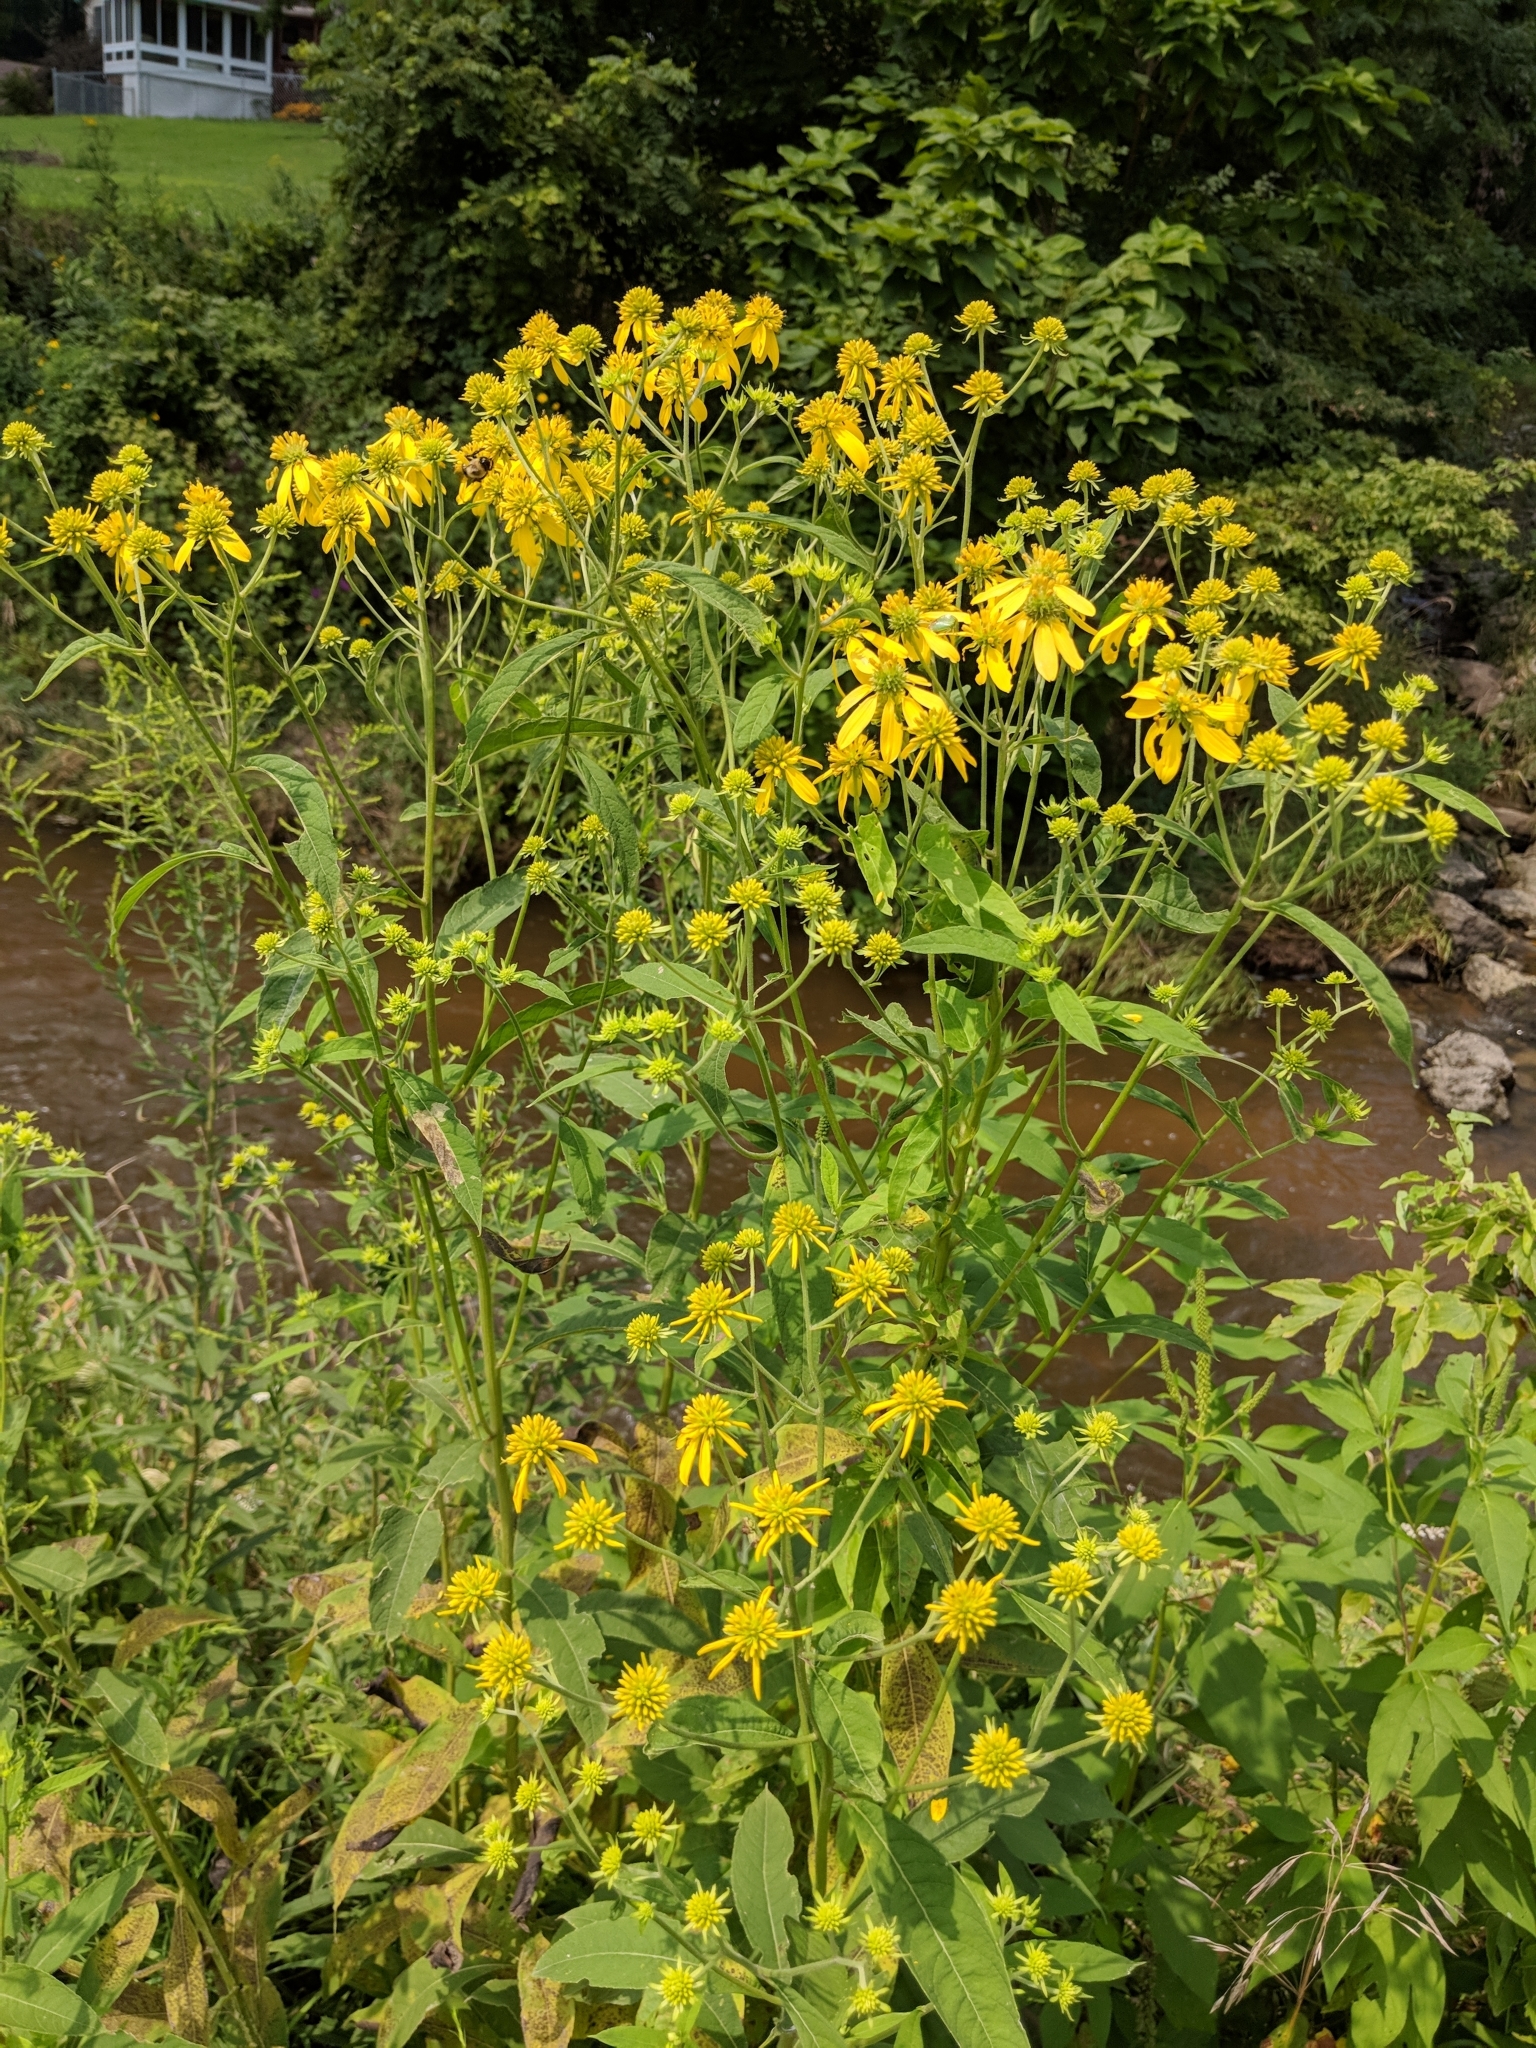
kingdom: Plantae
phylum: Tracheophyta
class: Magnoliopsida
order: Asterales
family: Asteraceae
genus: Verbesina
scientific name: Verbesina alternifolia
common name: Wingstem
